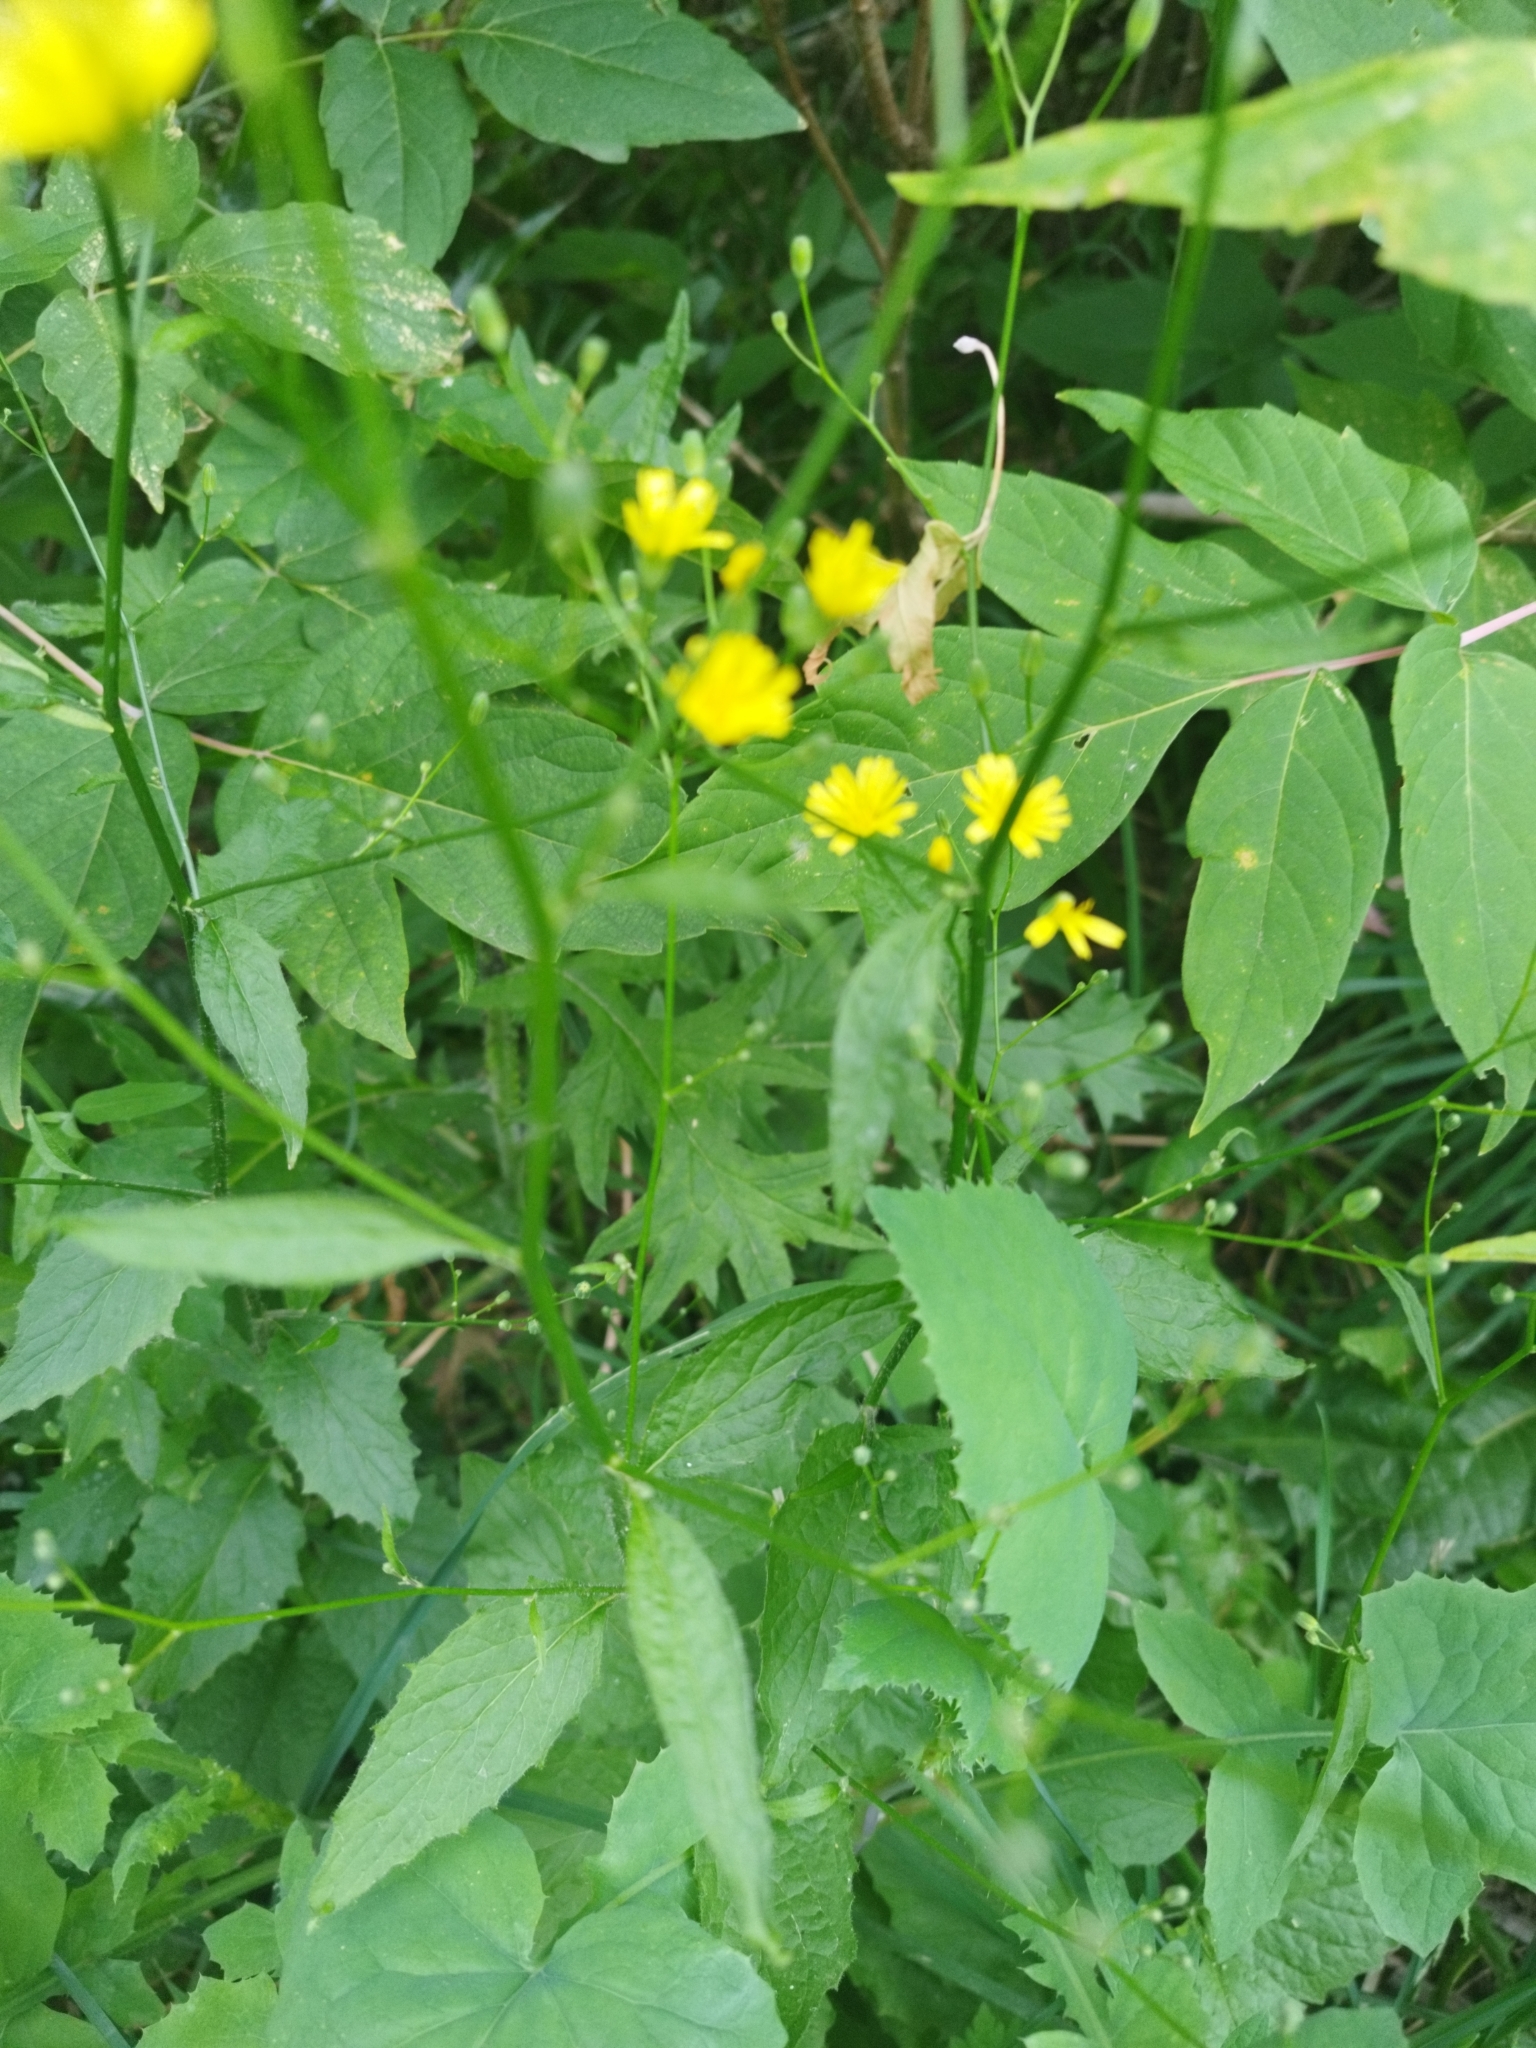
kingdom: Plantae
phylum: Tracheophyta
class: Magnoliopsida
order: Asterales
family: Asteraceae
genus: Lapsana
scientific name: Lapsana communis
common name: Nipplewort
